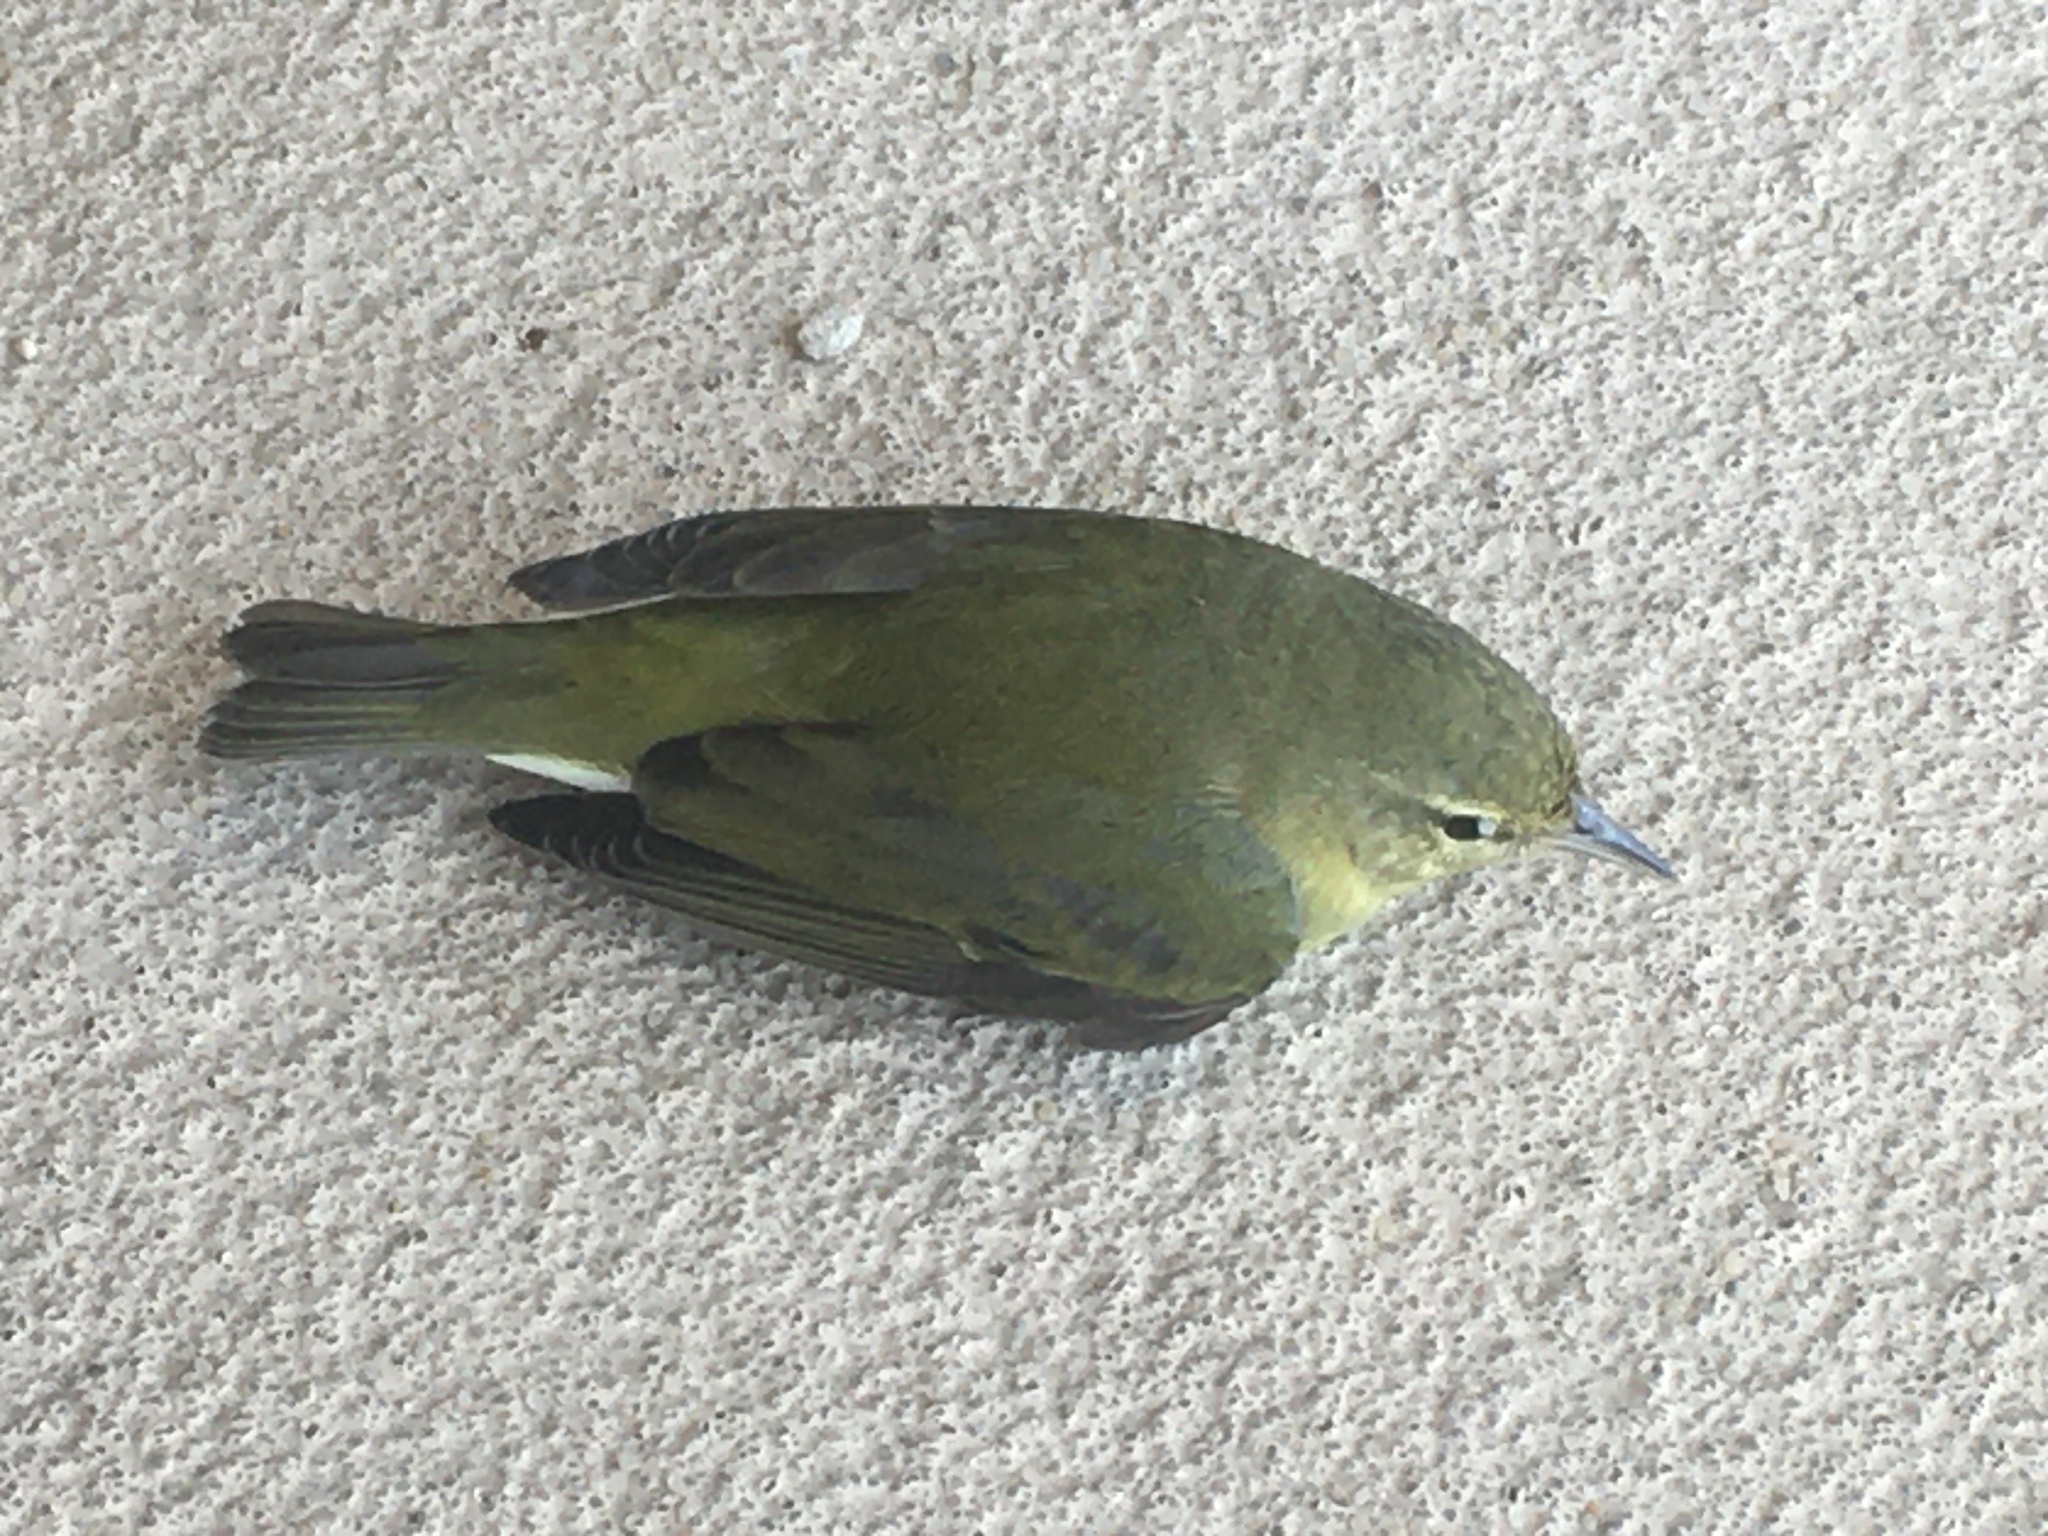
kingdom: Animalia
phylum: Chordata
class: Aves
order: Passeriformes
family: Parulidae
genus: Leiothlypis
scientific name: Leiothlypis peregrina
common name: Tennessee warbler
